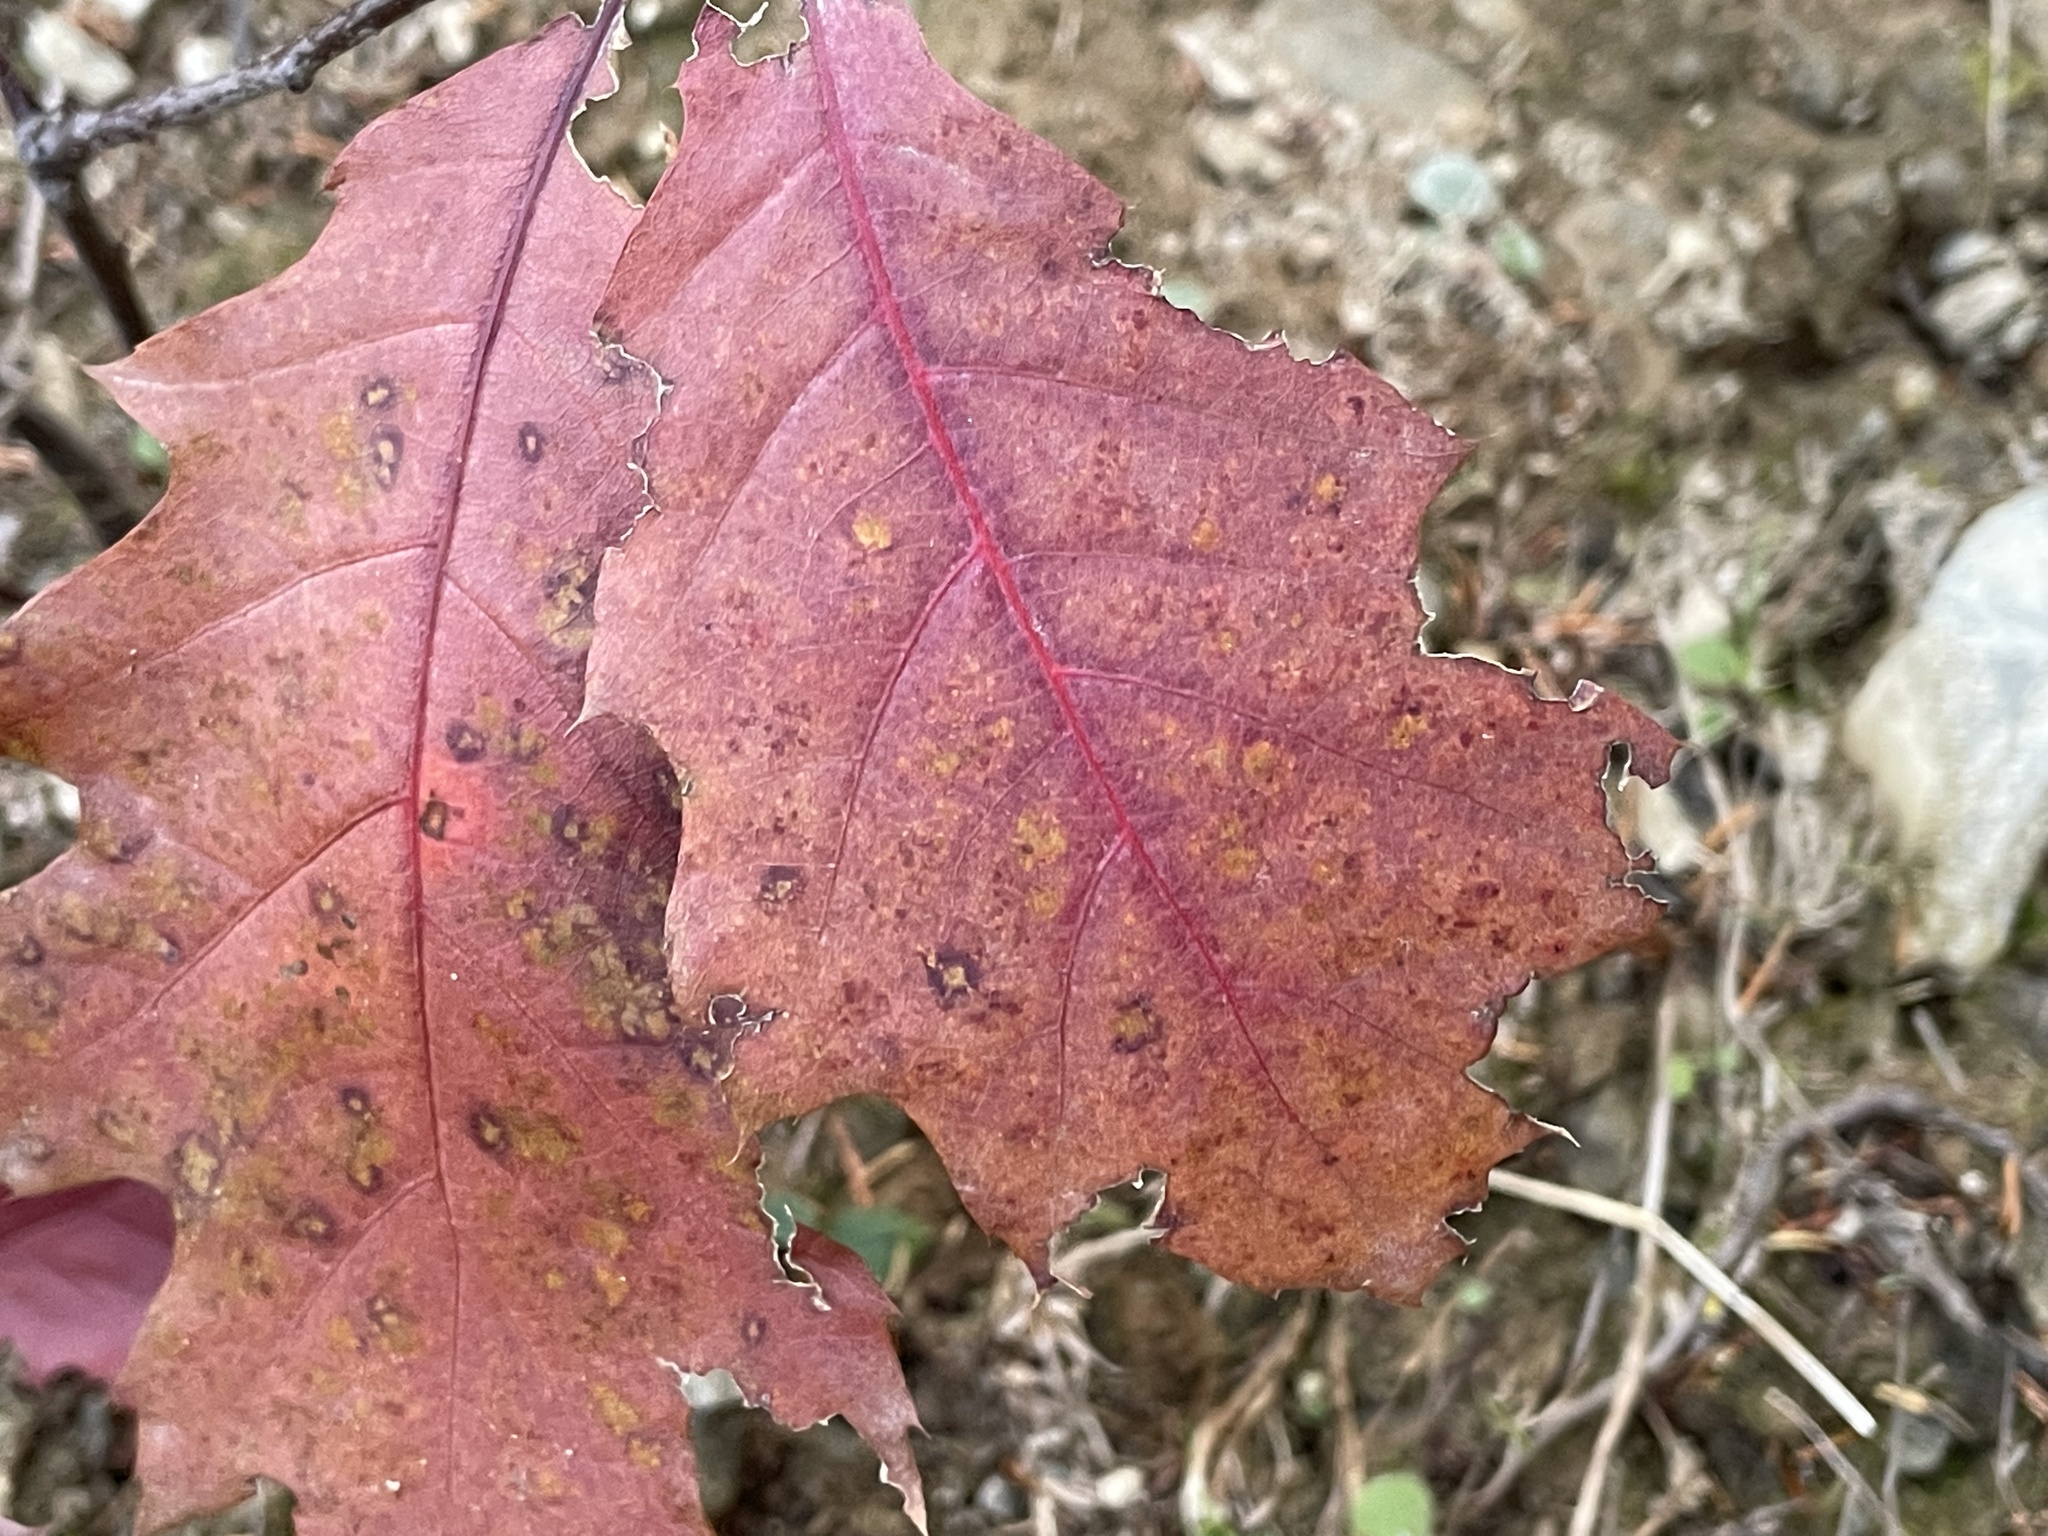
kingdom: Plantae
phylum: Tracheophyta
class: Magnoliopsida
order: Fagales
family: Fagaceae
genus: Quercus
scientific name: Quercus rubra
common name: Red oak
